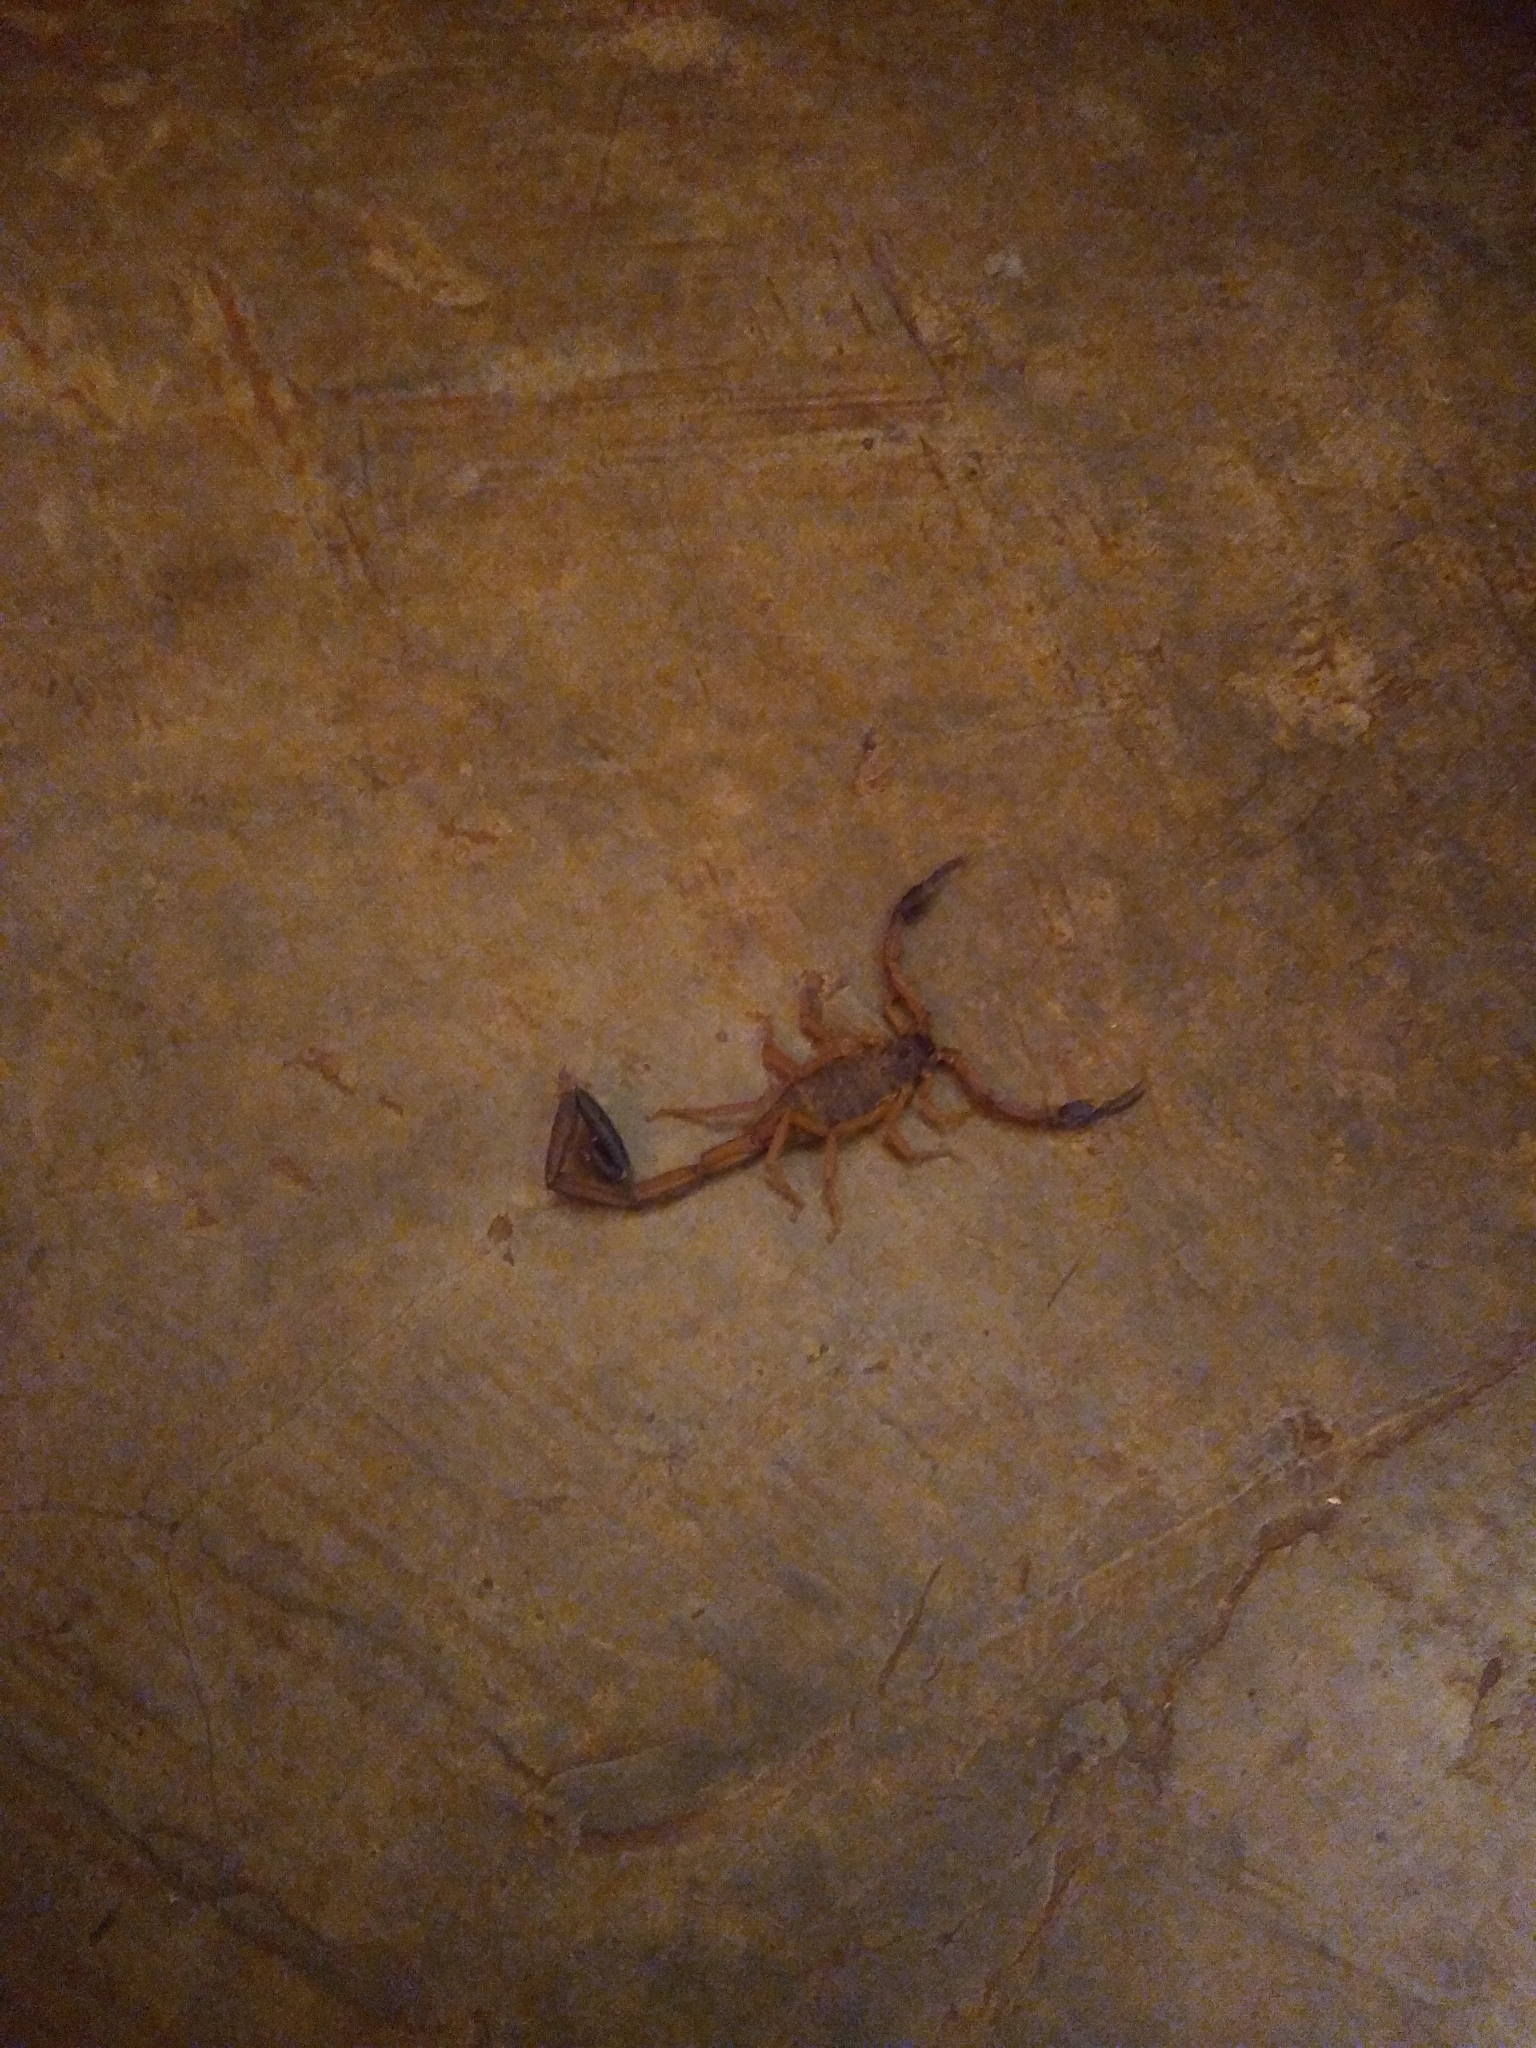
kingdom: Animalia
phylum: Arthropoda
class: Arachnida
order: Scorpiones
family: Buthidae
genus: Centruroides
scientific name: Centruroides
